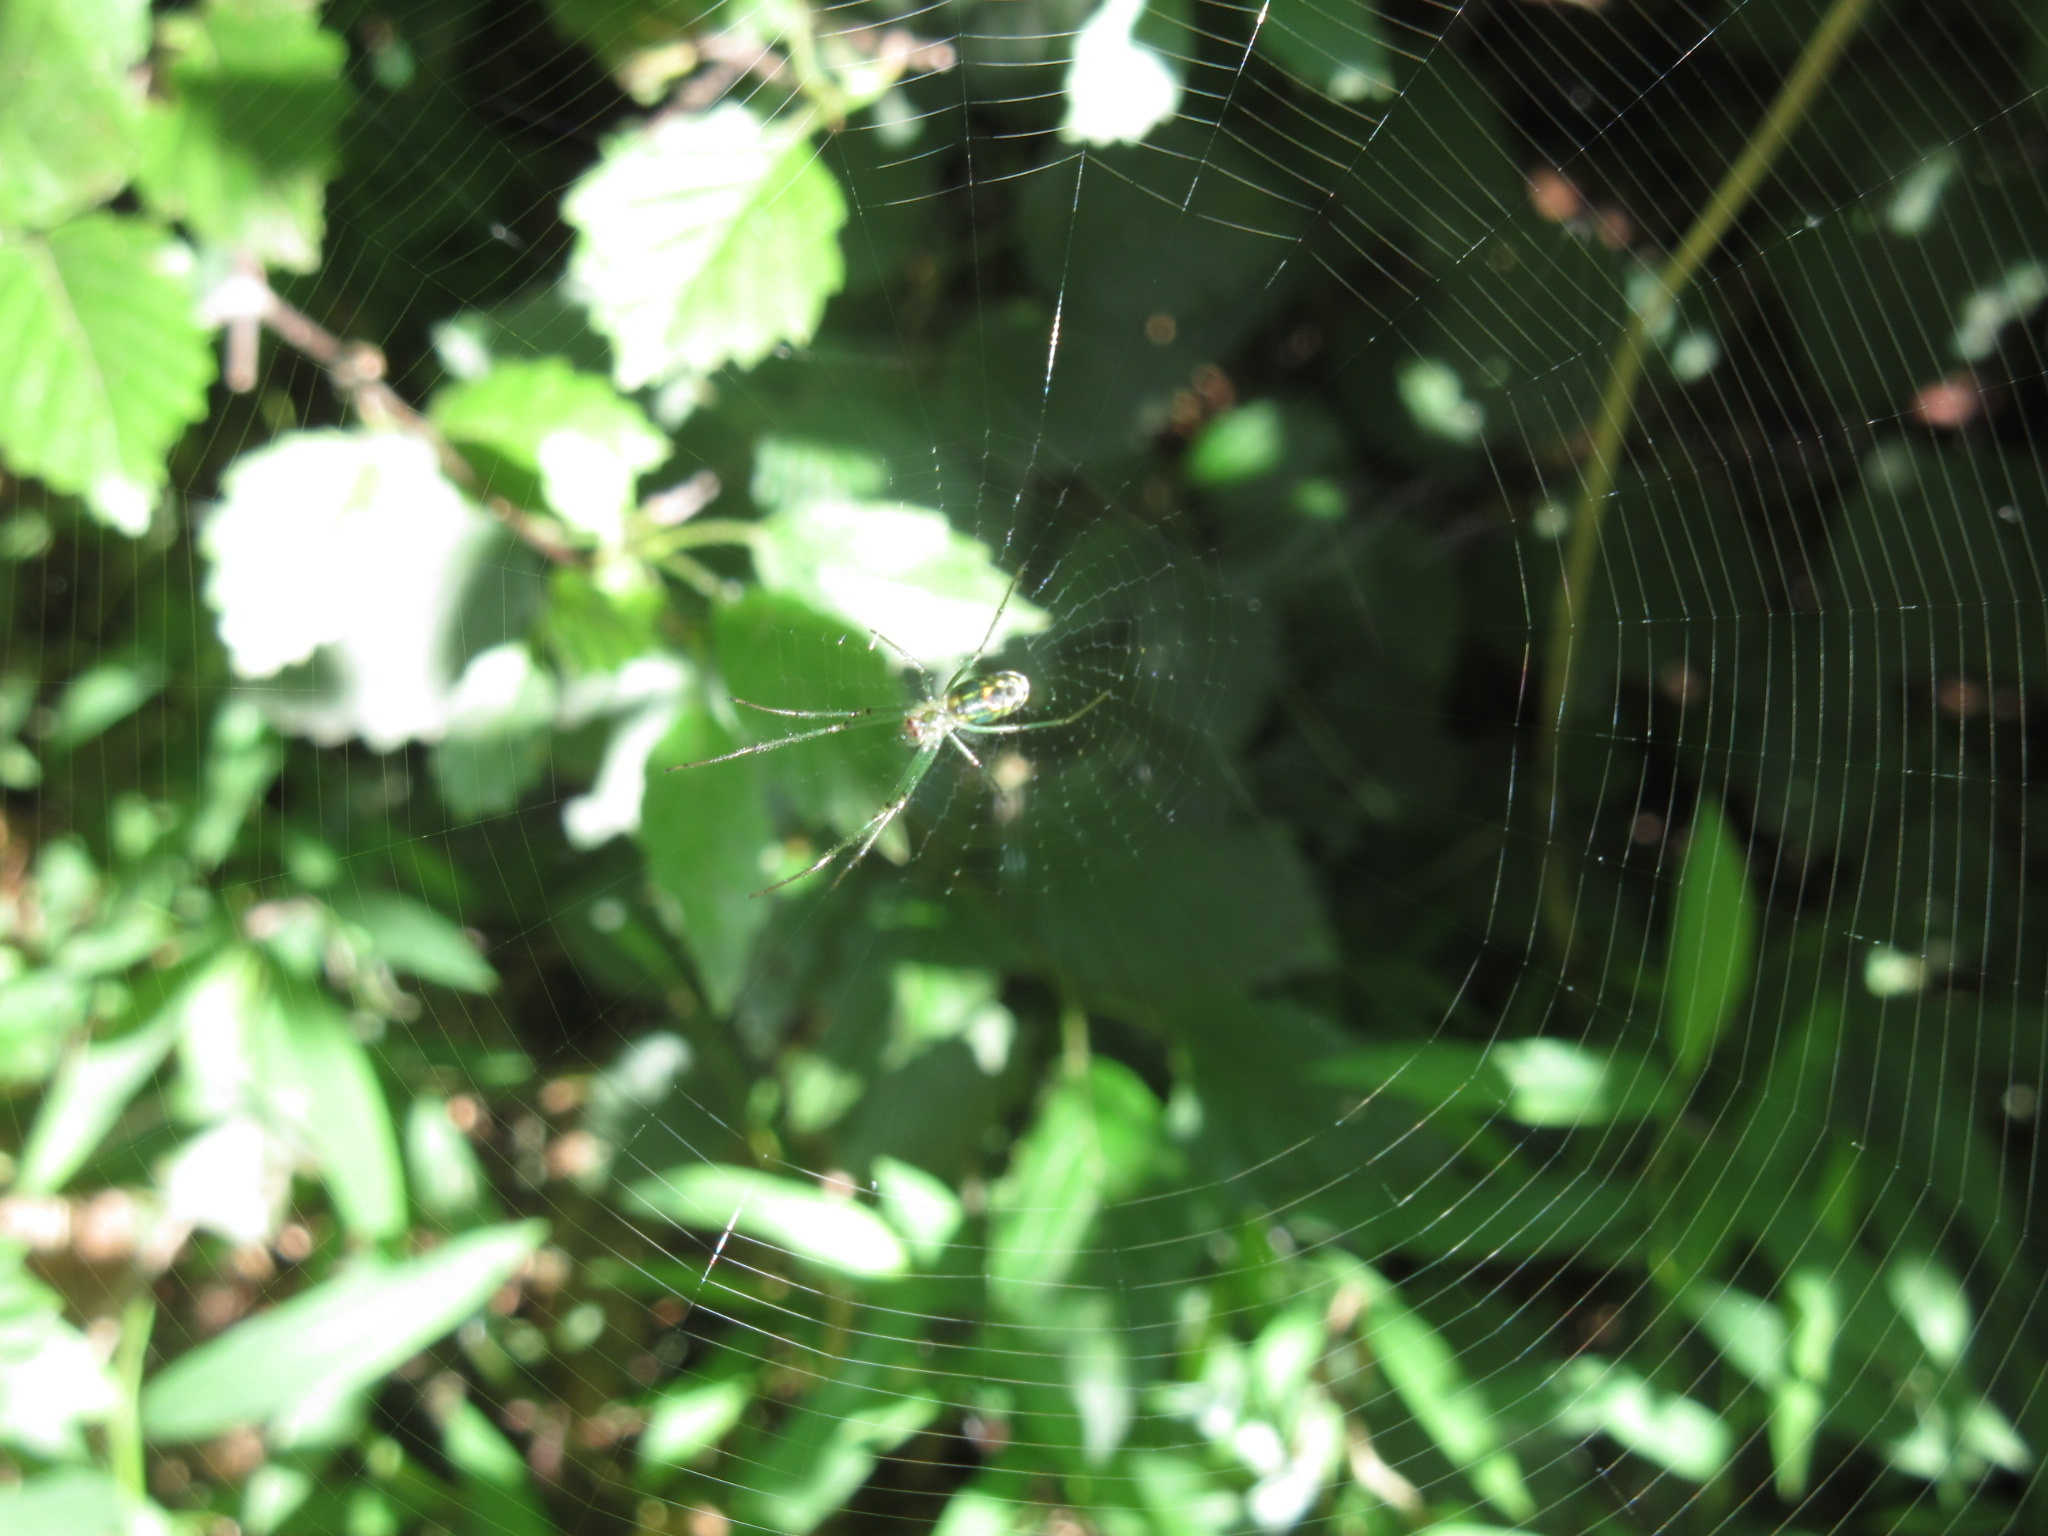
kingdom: Animalia
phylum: Arthropoda
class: Arachnida
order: Araneae
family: Tetragnathidae
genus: Leucauge
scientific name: Leucauge venusta
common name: Longjawed orb weavers
